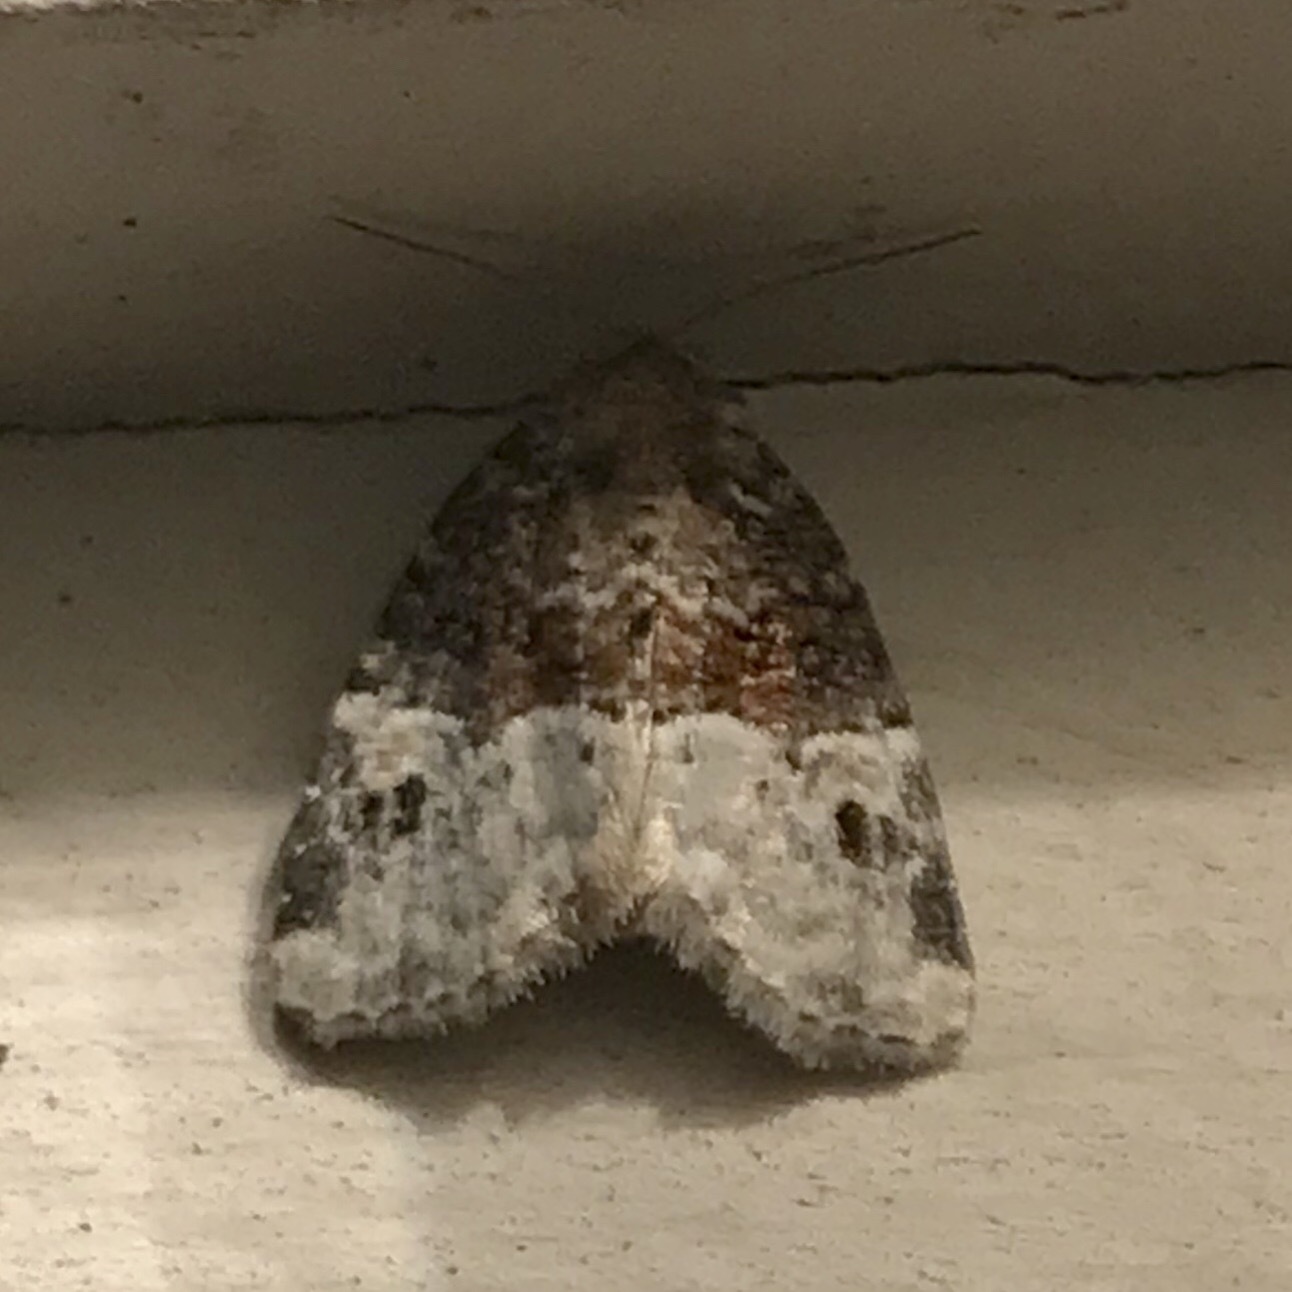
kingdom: Animalia
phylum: Arthropoda
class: Insecta
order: Lepidoptera
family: Noctuidae
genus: Neoligia
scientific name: Neoligia crytora
